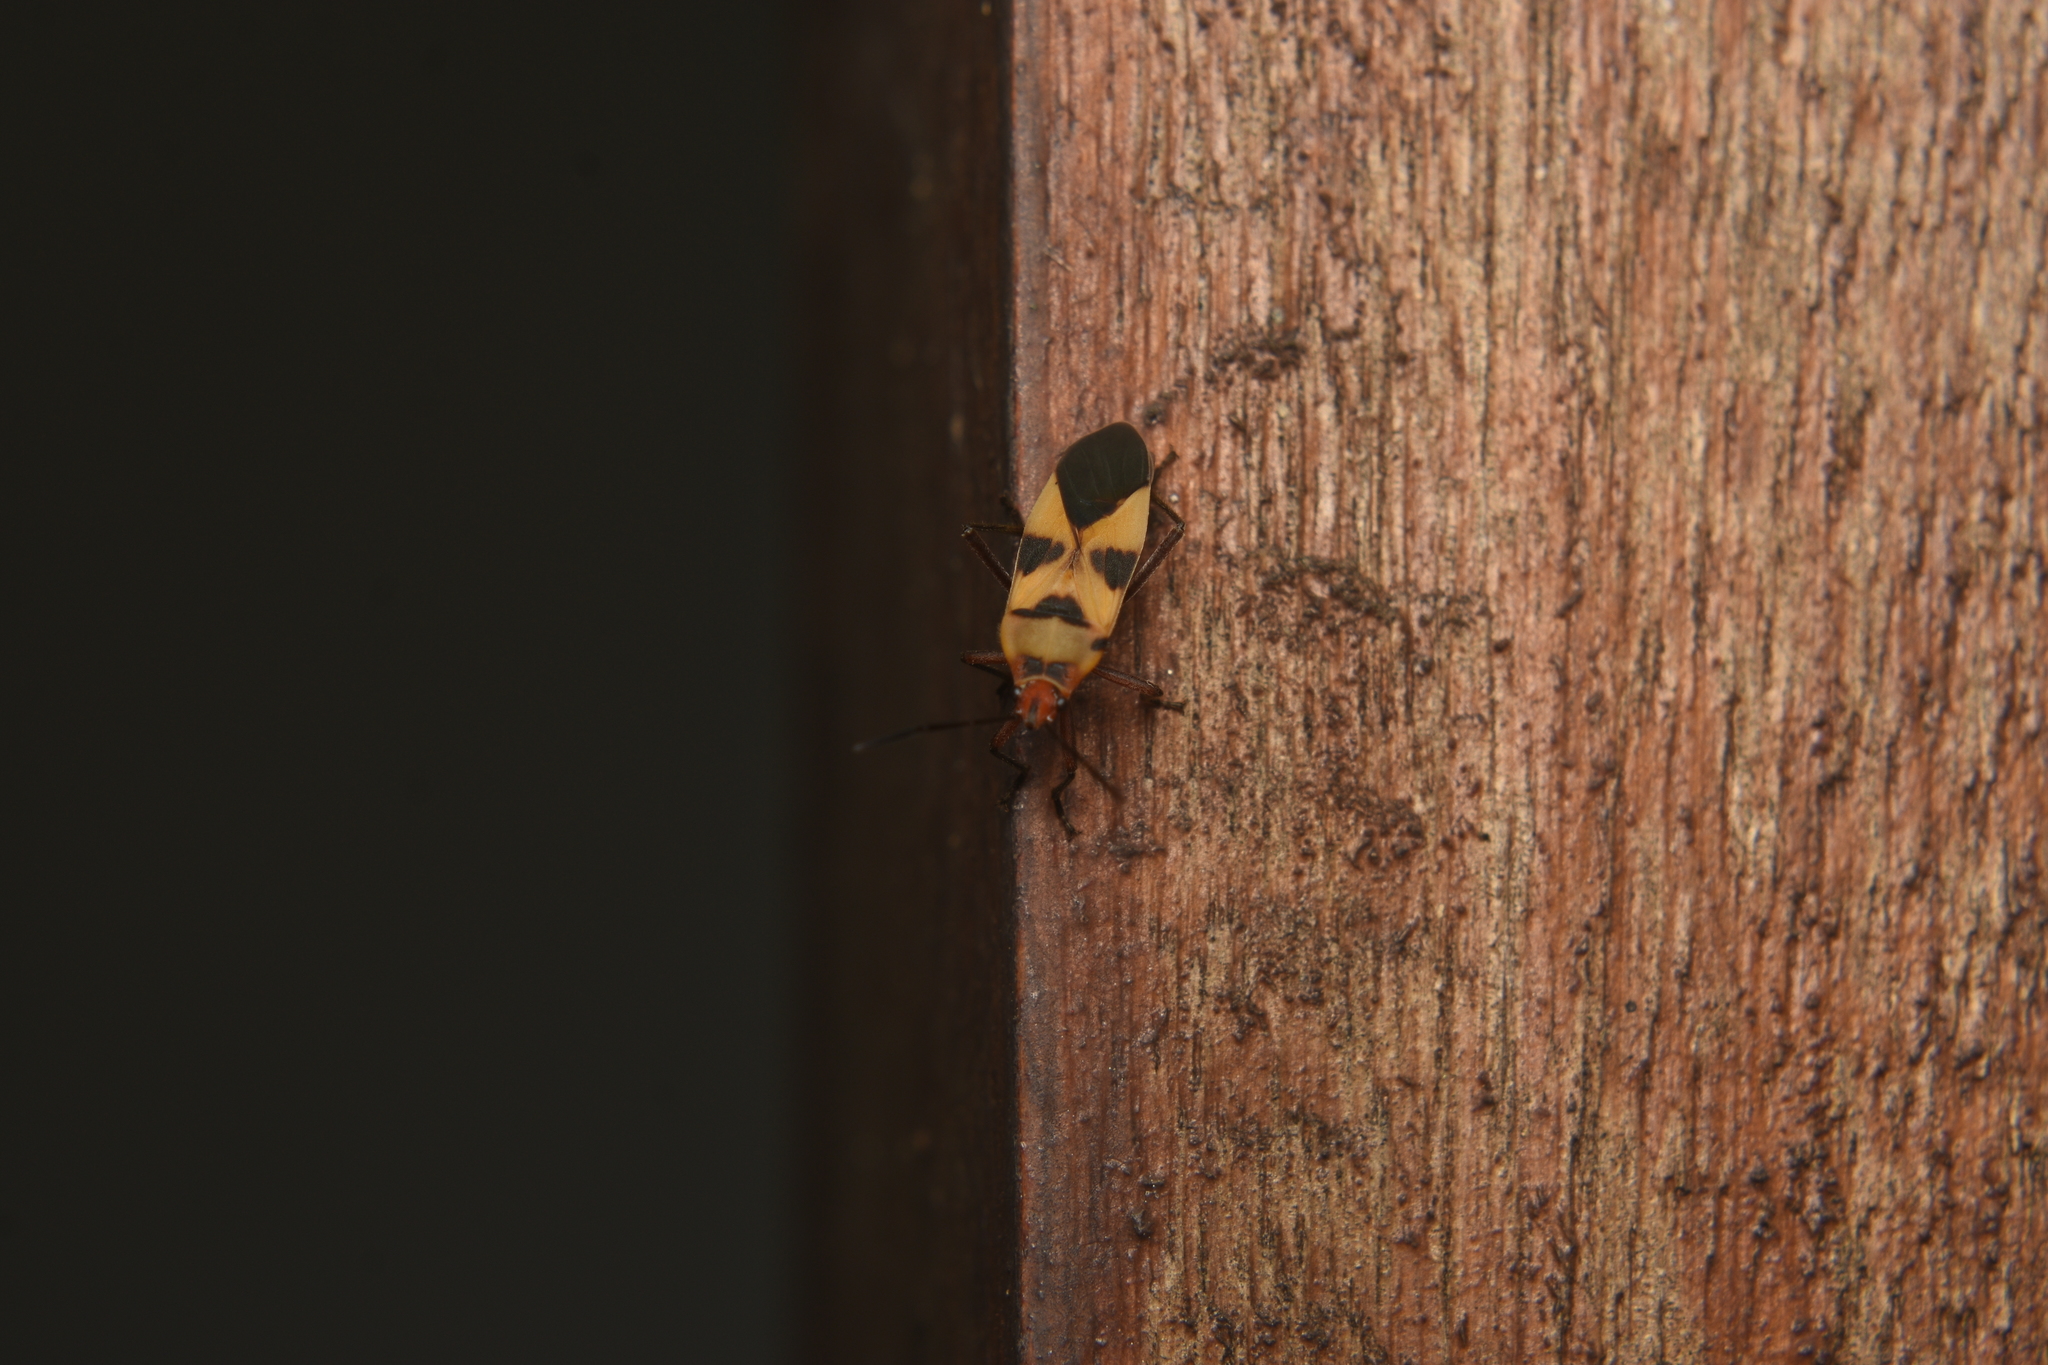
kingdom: Animalia
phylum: Arthropoda
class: Insecta
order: Hemiptera
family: Lygaeidae
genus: Oncopeltus
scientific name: Oncopeltus unifasciatellus
